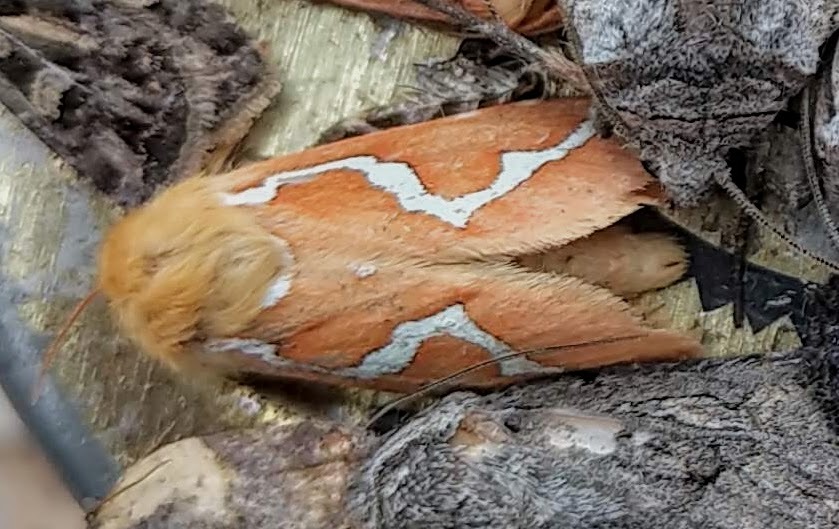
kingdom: Animalia
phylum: Arthropoda
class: Insecta
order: Lepidoptera
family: Hepialidae
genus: Gazoryctra
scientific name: Gazoryctra novigannus
